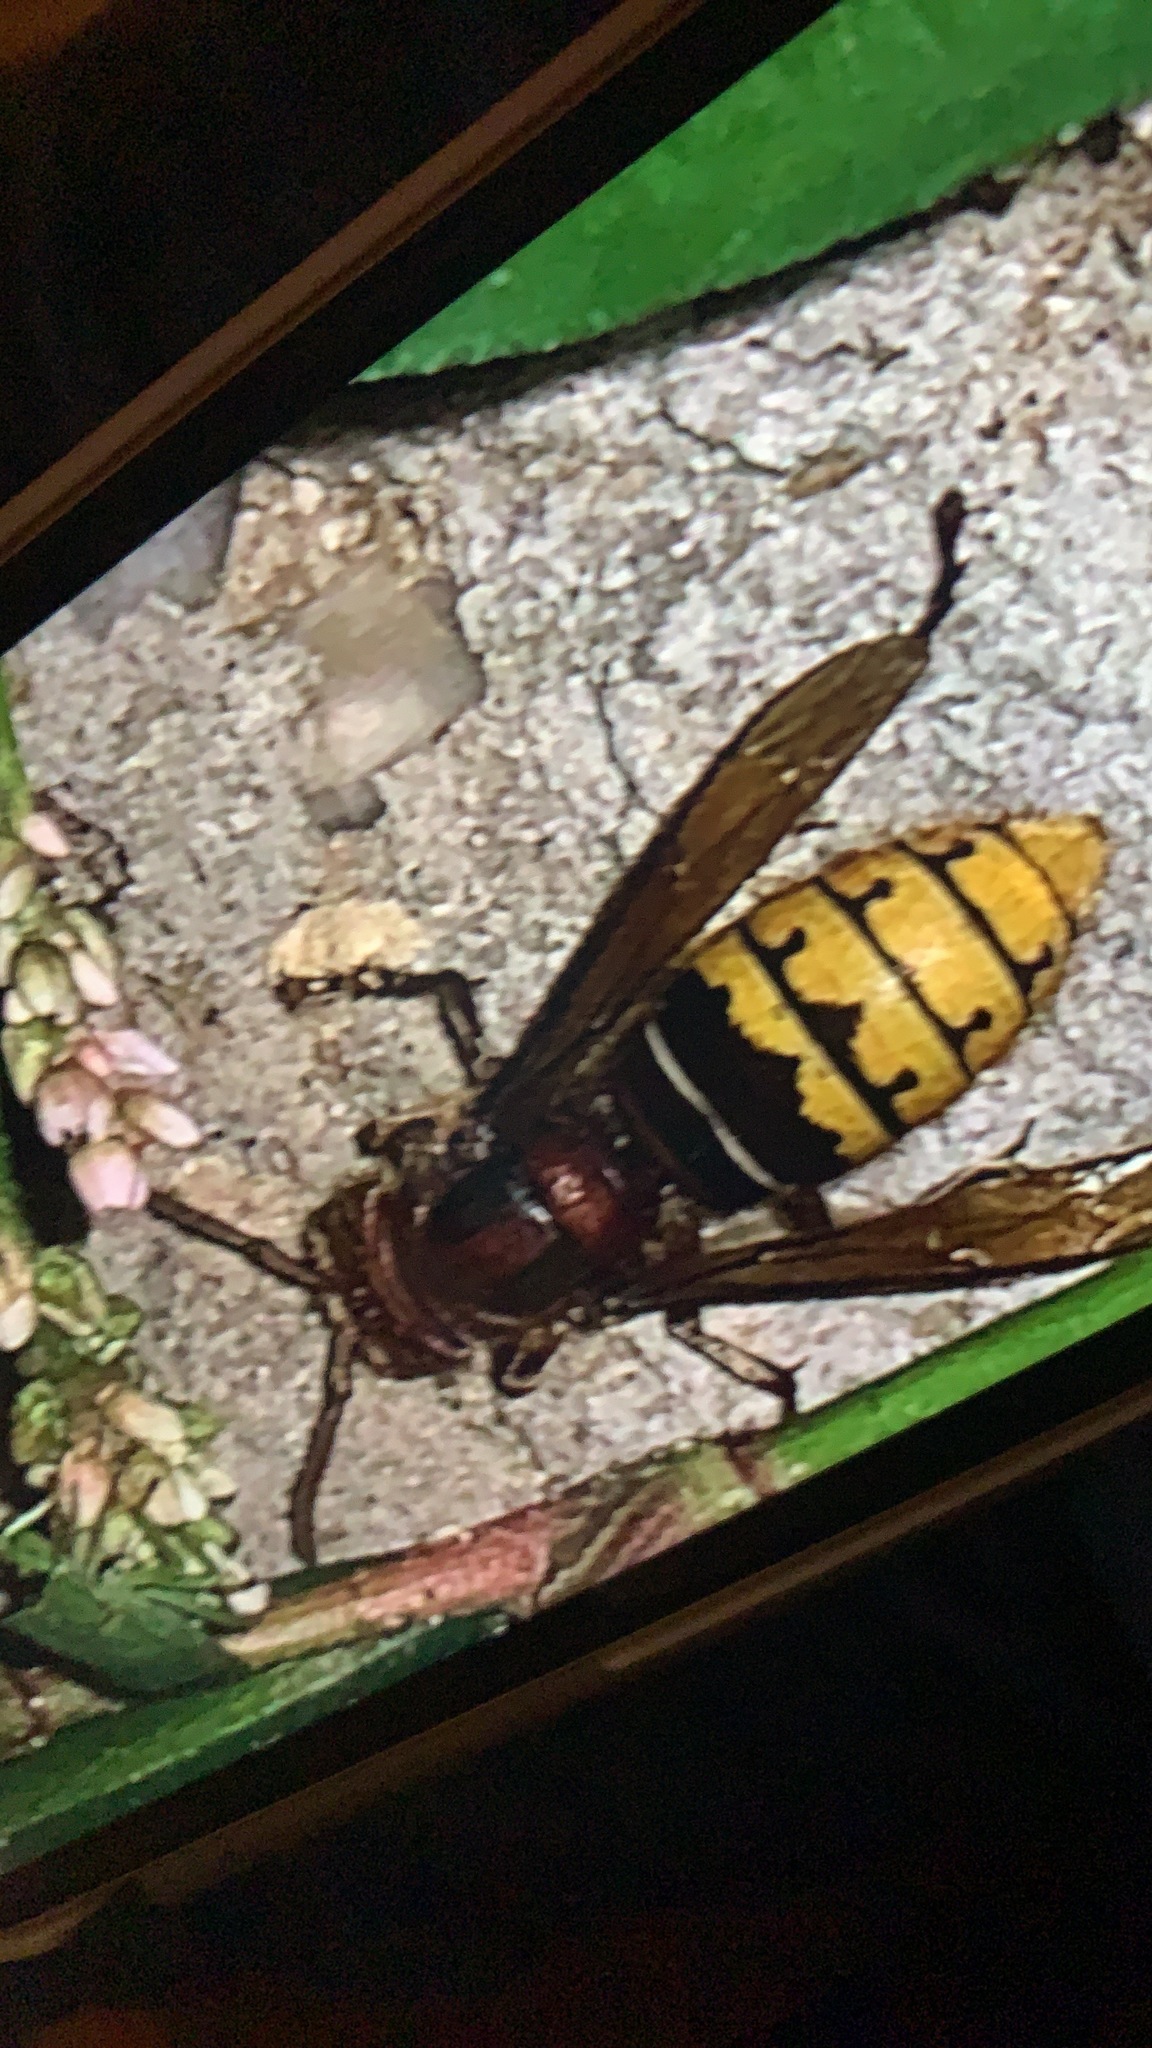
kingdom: Animalia
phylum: Arthropoda
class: Insecta
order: Hymenoptera
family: Vespidae
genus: Vespa
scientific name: Vespa crabro
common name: Hornet
